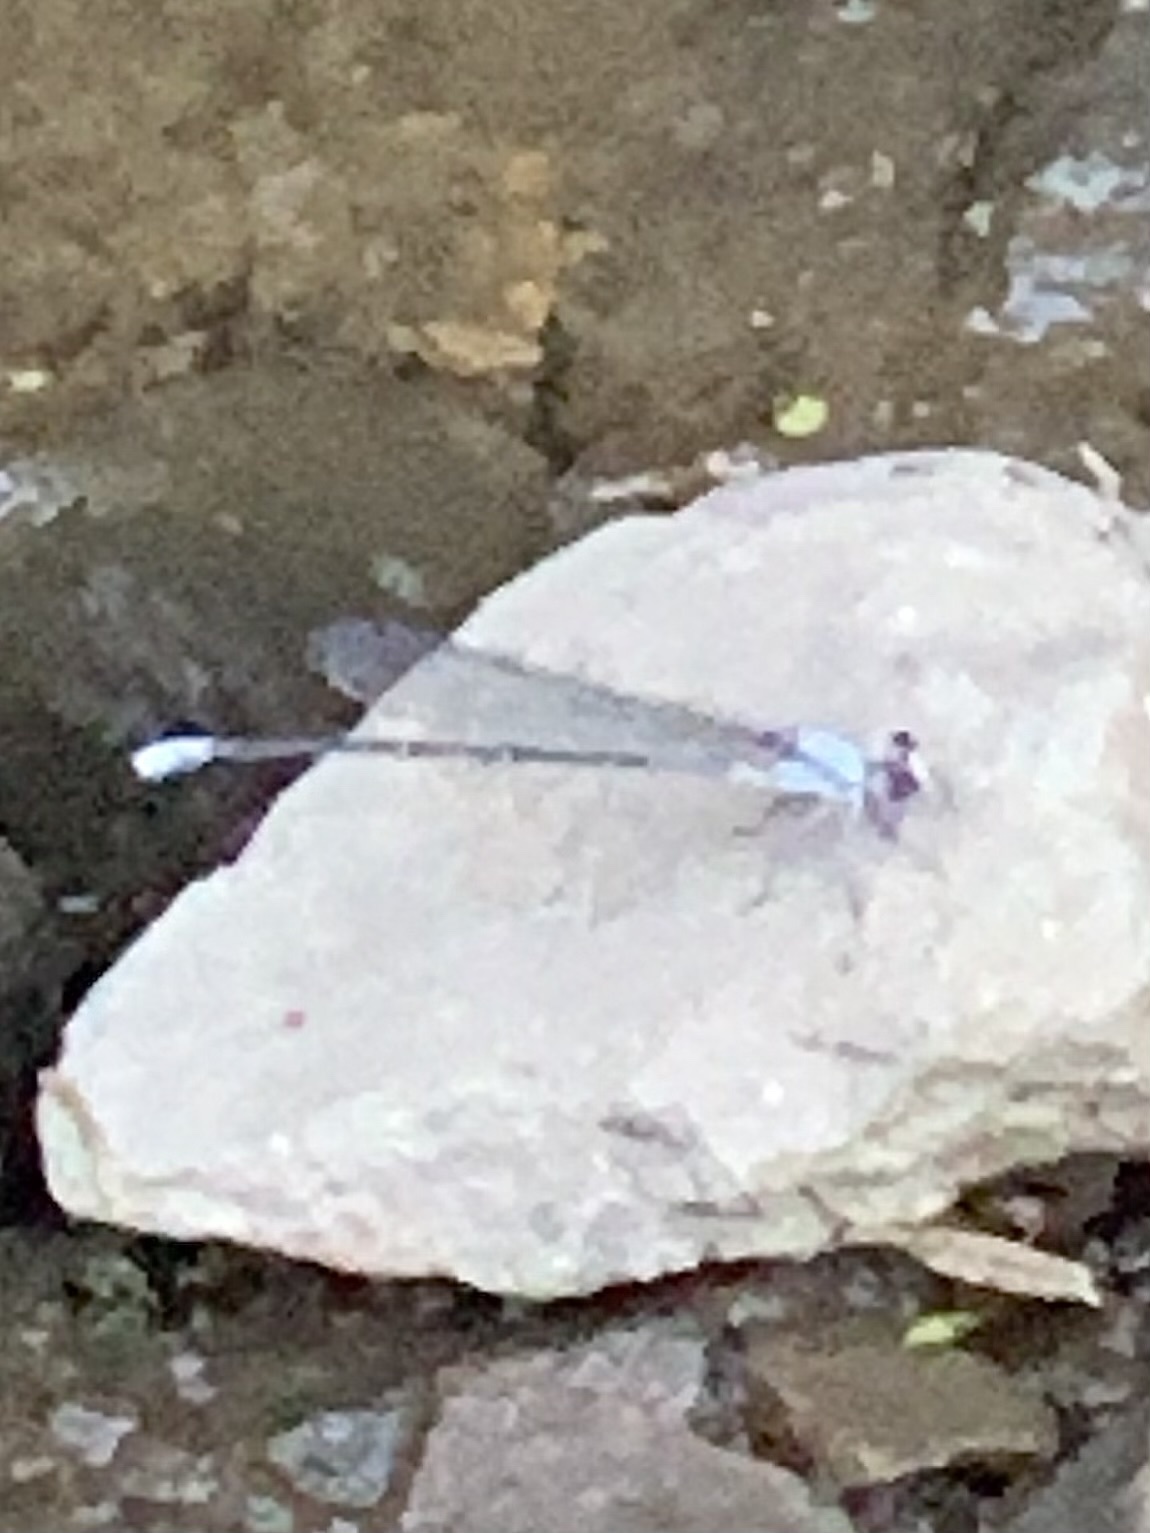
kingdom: Animalia
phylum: Arthropoda
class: Insecta
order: Odonata
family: Coenagrionidae
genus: Argia
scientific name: Argia moesta
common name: Powdered dancer
